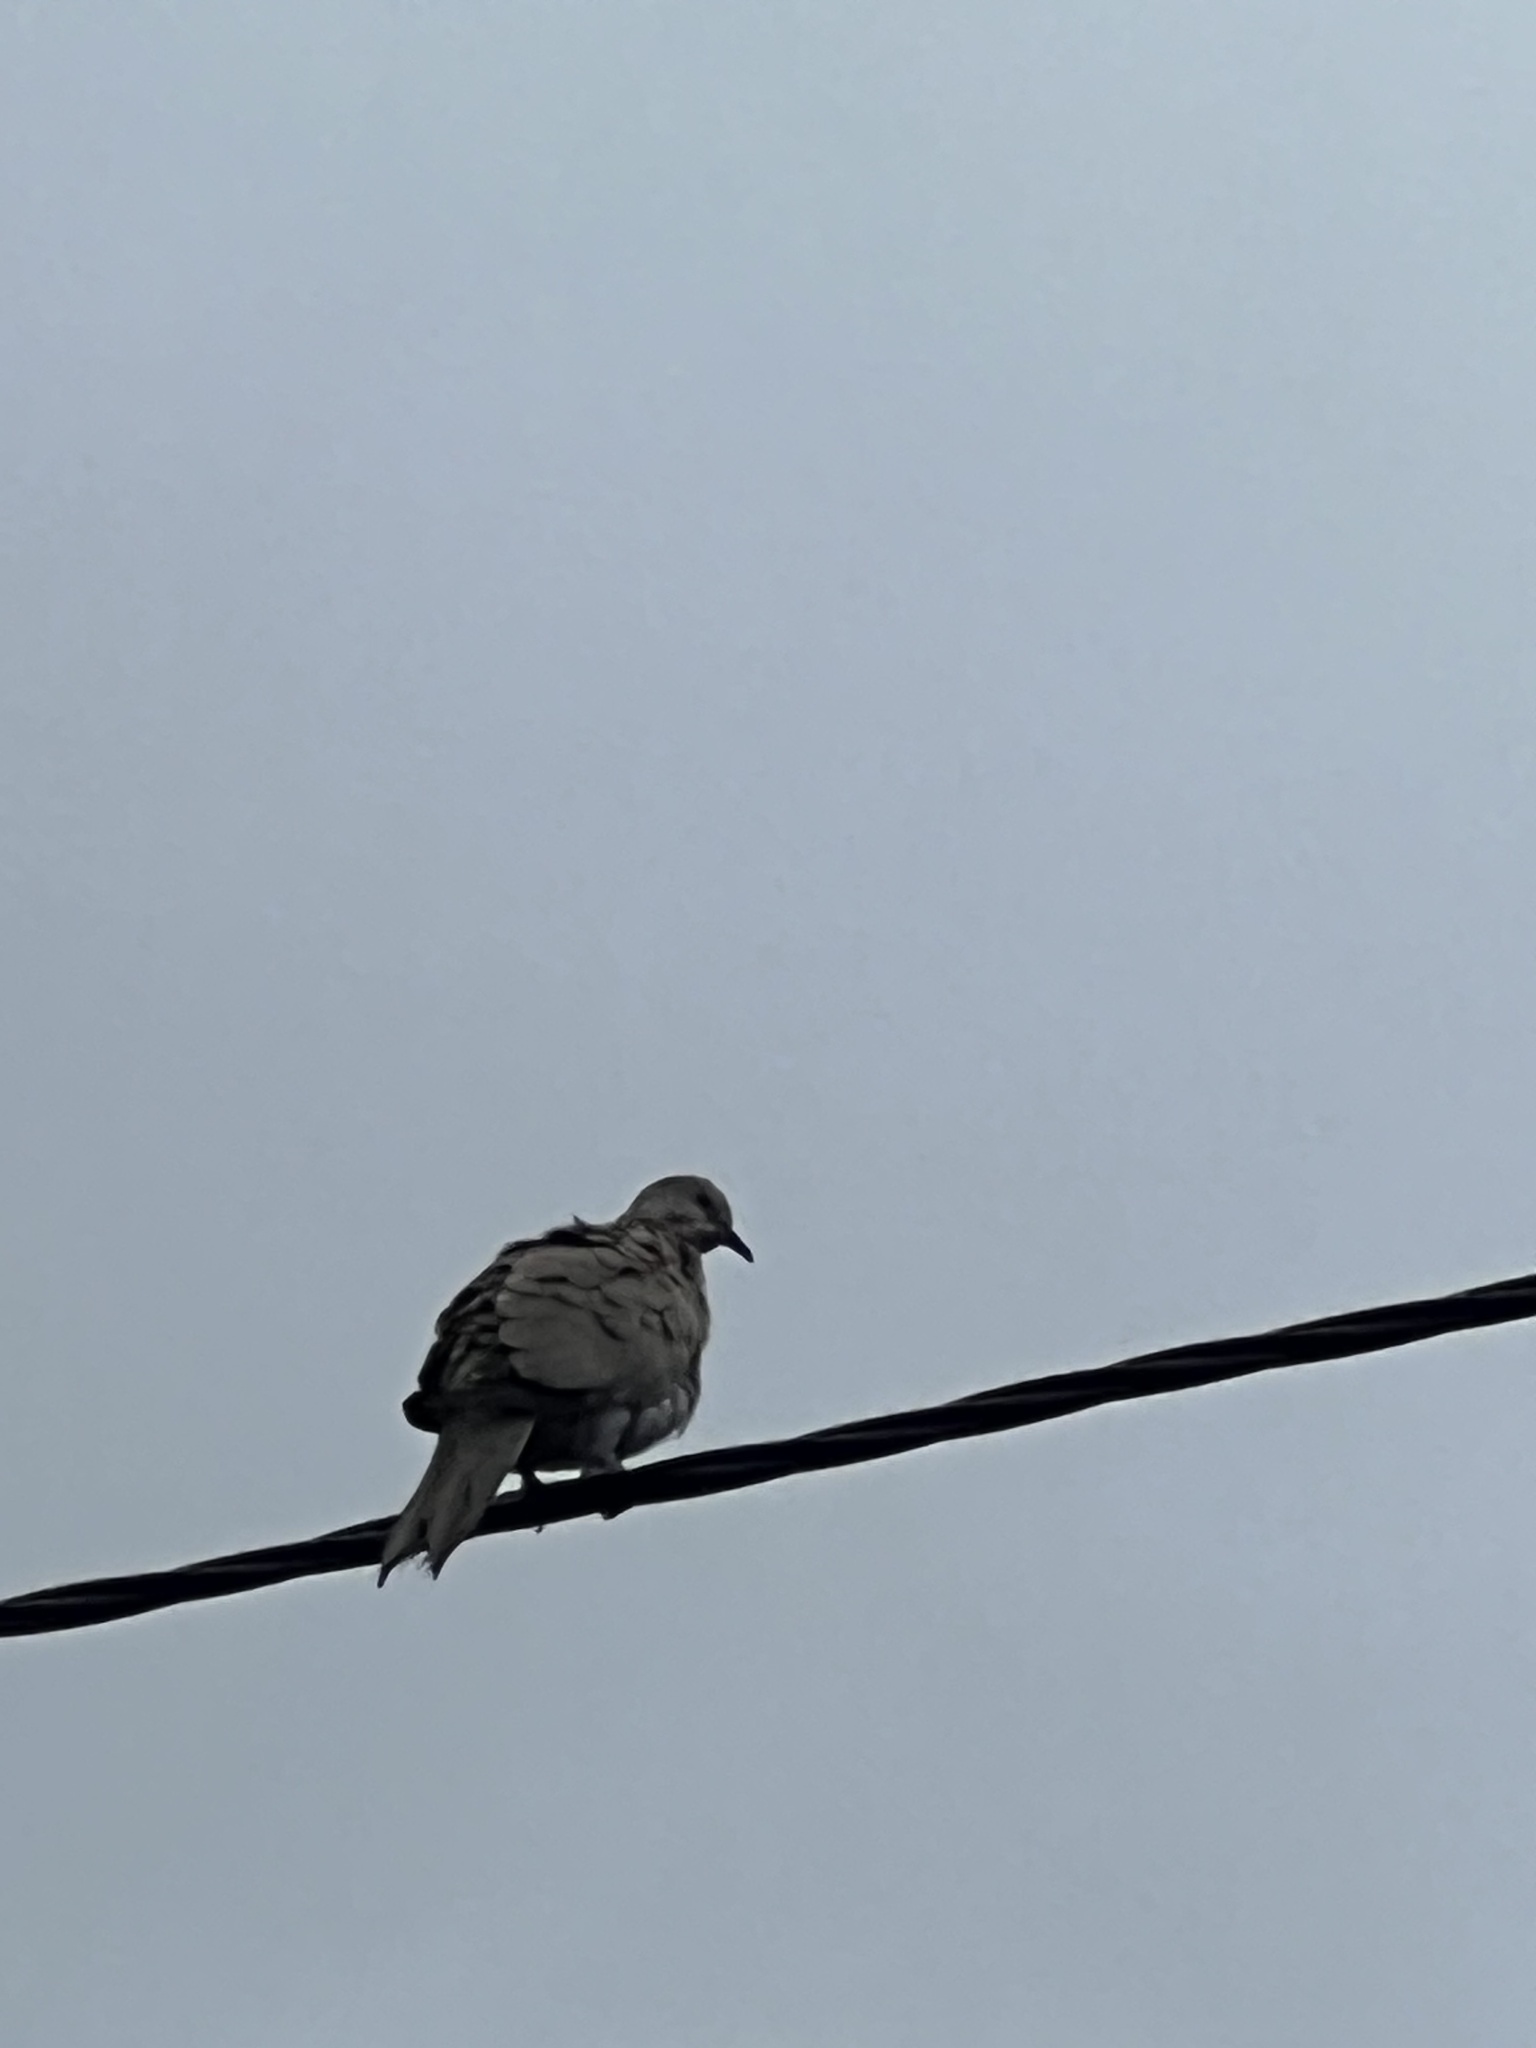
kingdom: Animalia
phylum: Chordata
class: Aves
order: Columbiformes
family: Columbidae
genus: Streptopelia
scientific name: Streptopelia decaocto
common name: Eurasian collared dove
